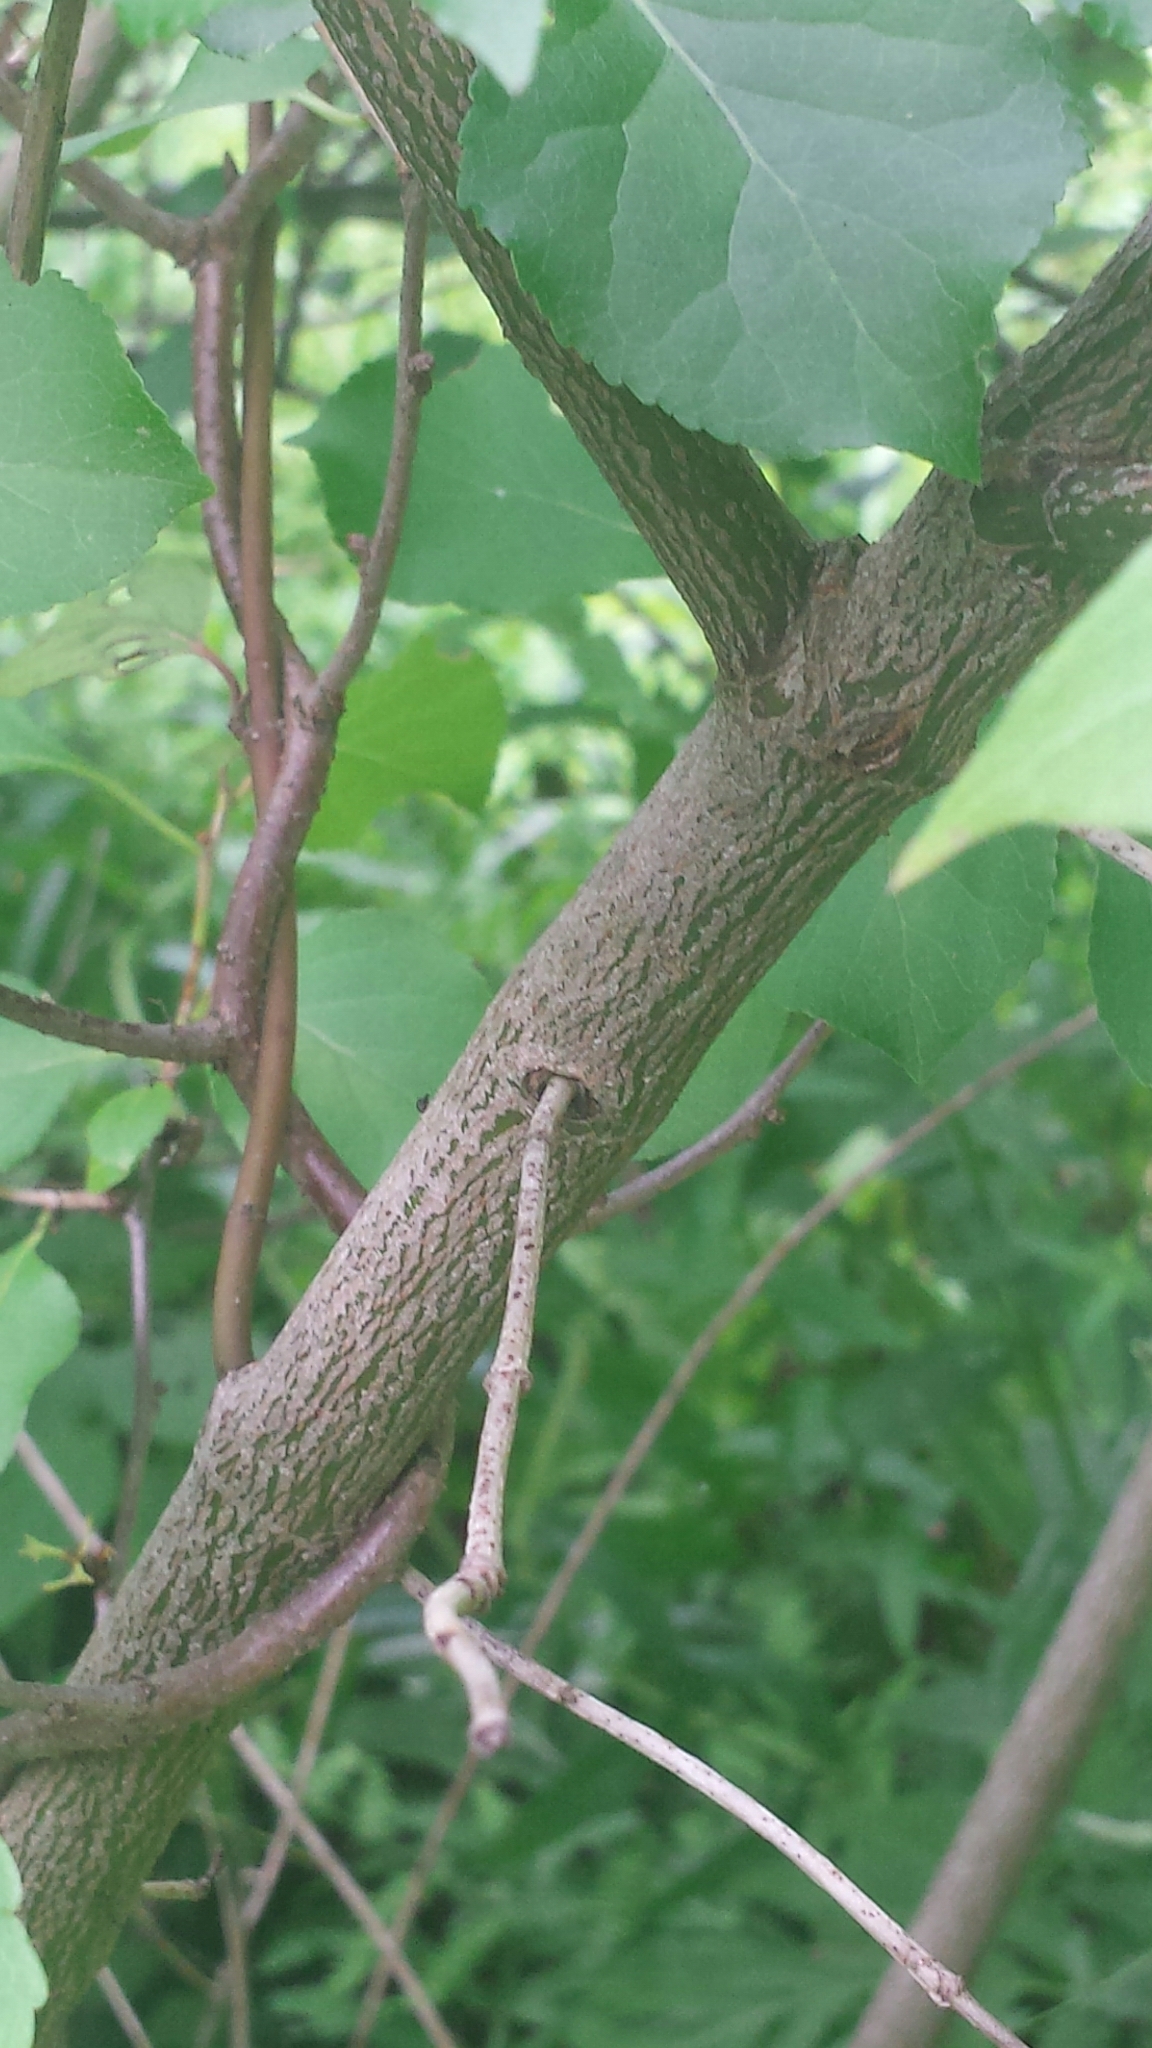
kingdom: Plantae
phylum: Tracheophyta
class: Magnoliopsida
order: Cornales
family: Cornaceae
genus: Cornus
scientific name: Cornus amomum
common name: Silky dogwood
